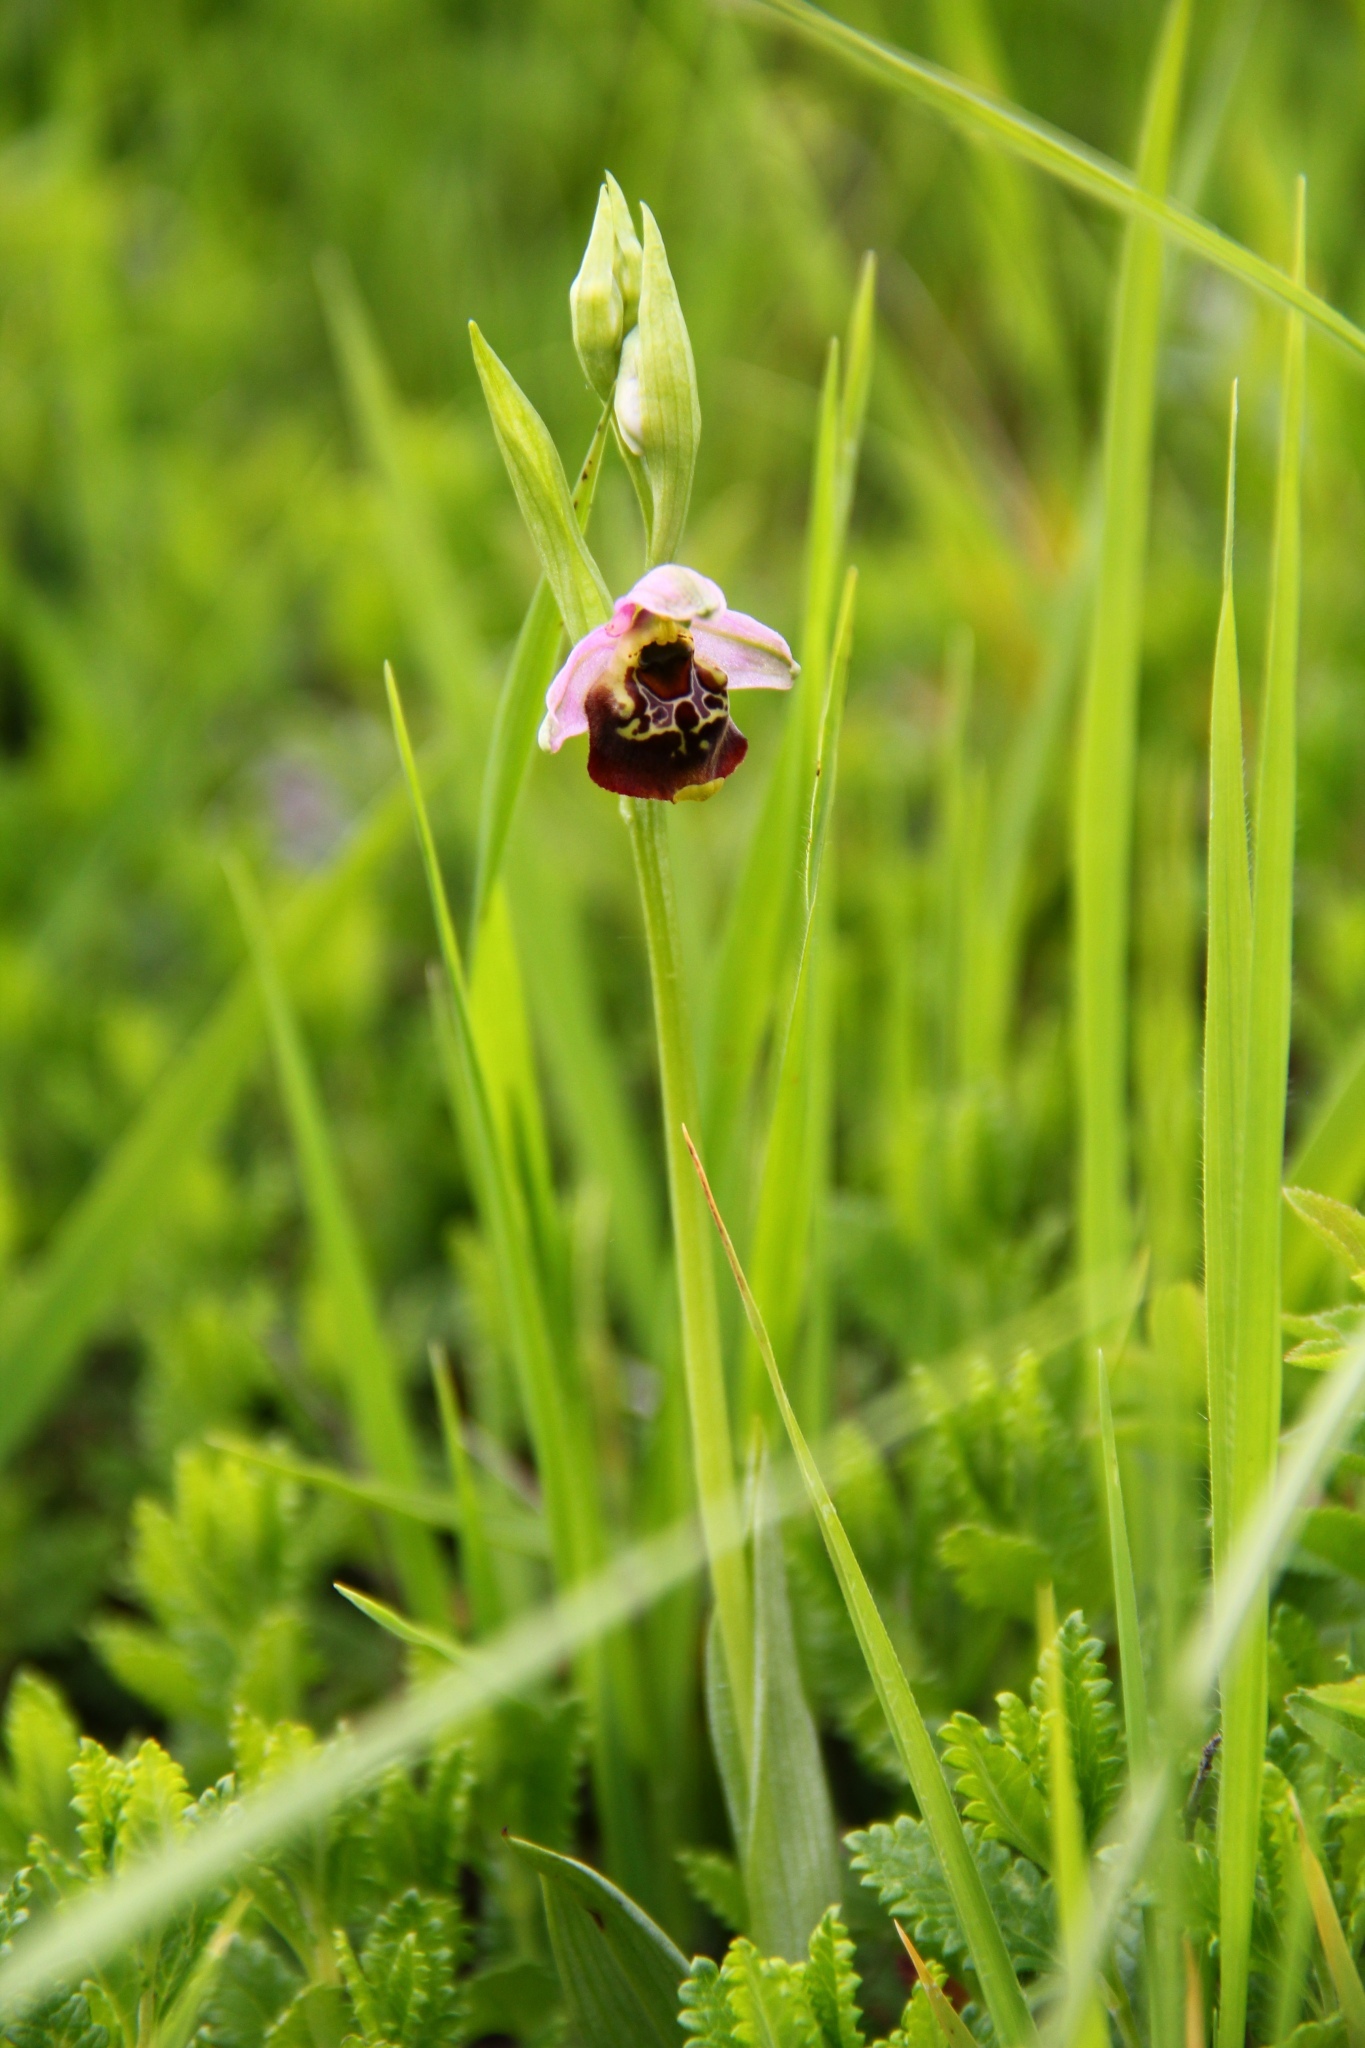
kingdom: Plantae
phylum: Tracheophyta
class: Liliopsida
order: Asparagales
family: Orchidaceae
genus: Ophrys
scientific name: Ophrys holosericea
